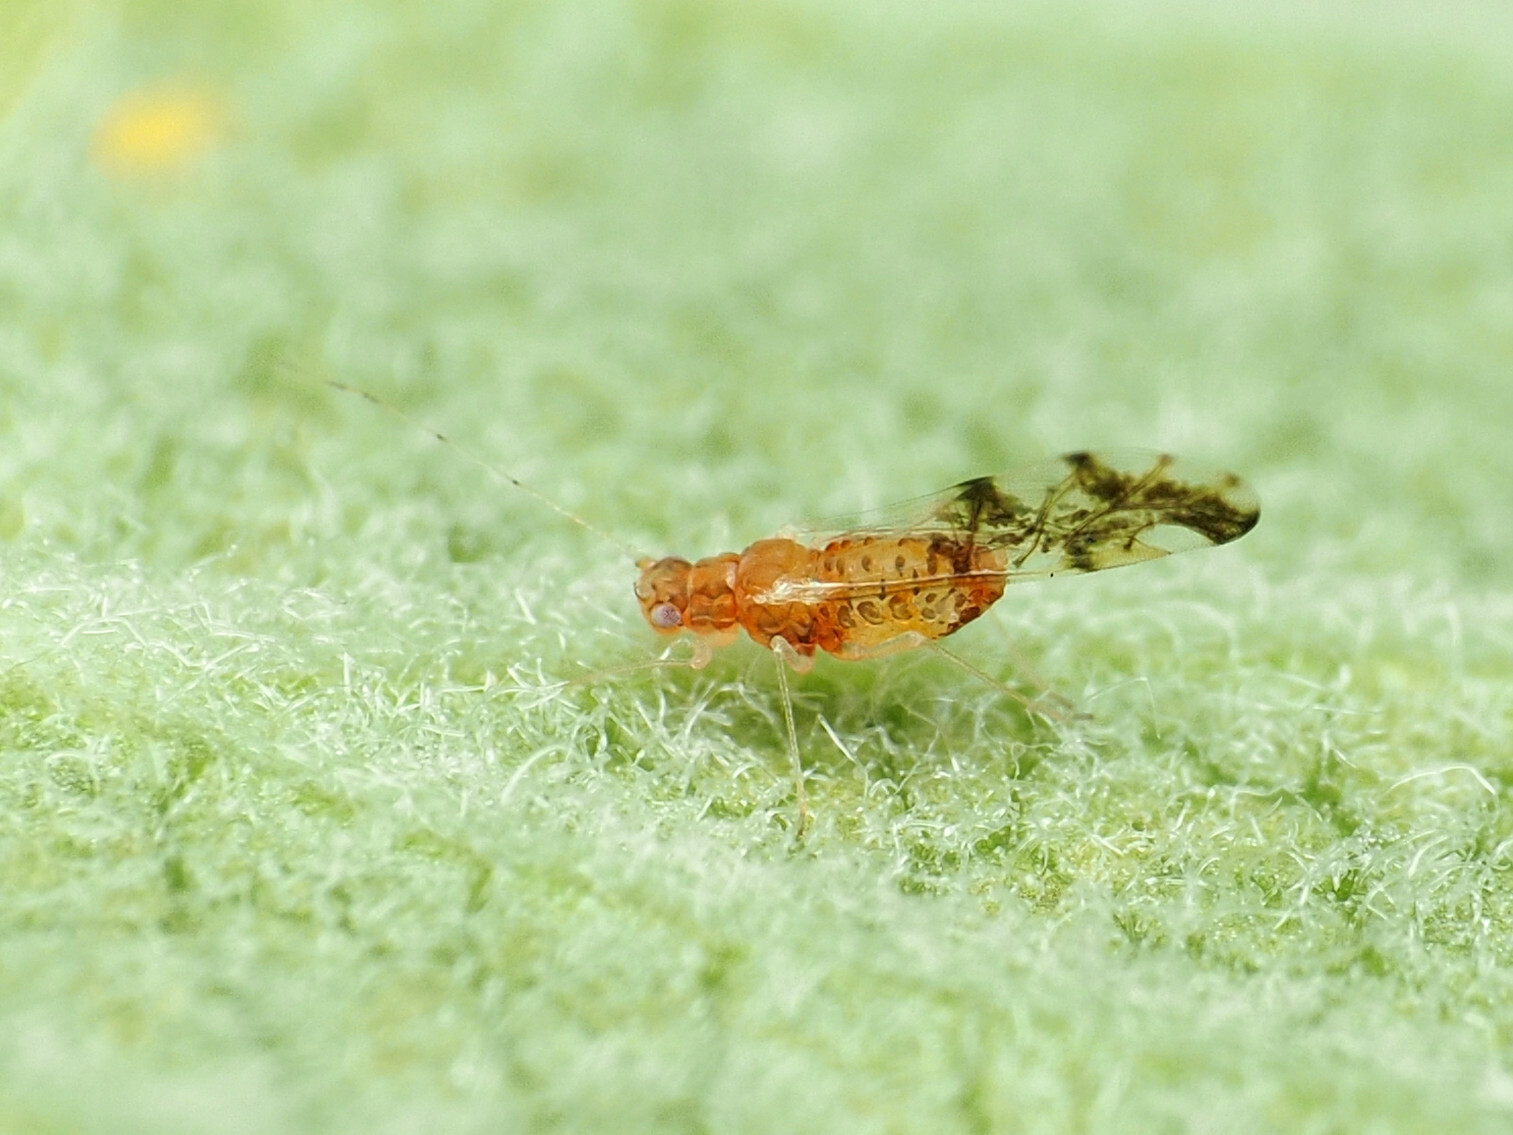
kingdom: Animalia
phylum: Arthropoda
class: Insecta
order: Hemiptera
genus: Neomyzocallis
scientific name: Neomyzocallis
